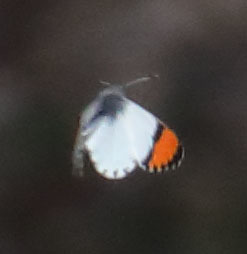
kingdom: Animalia
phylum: Arthropoda
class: Insecta
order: Lepidoptera
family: Pieridae
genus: Anthocharis
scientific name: Anthocharis sara
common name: Sara's orangetip
